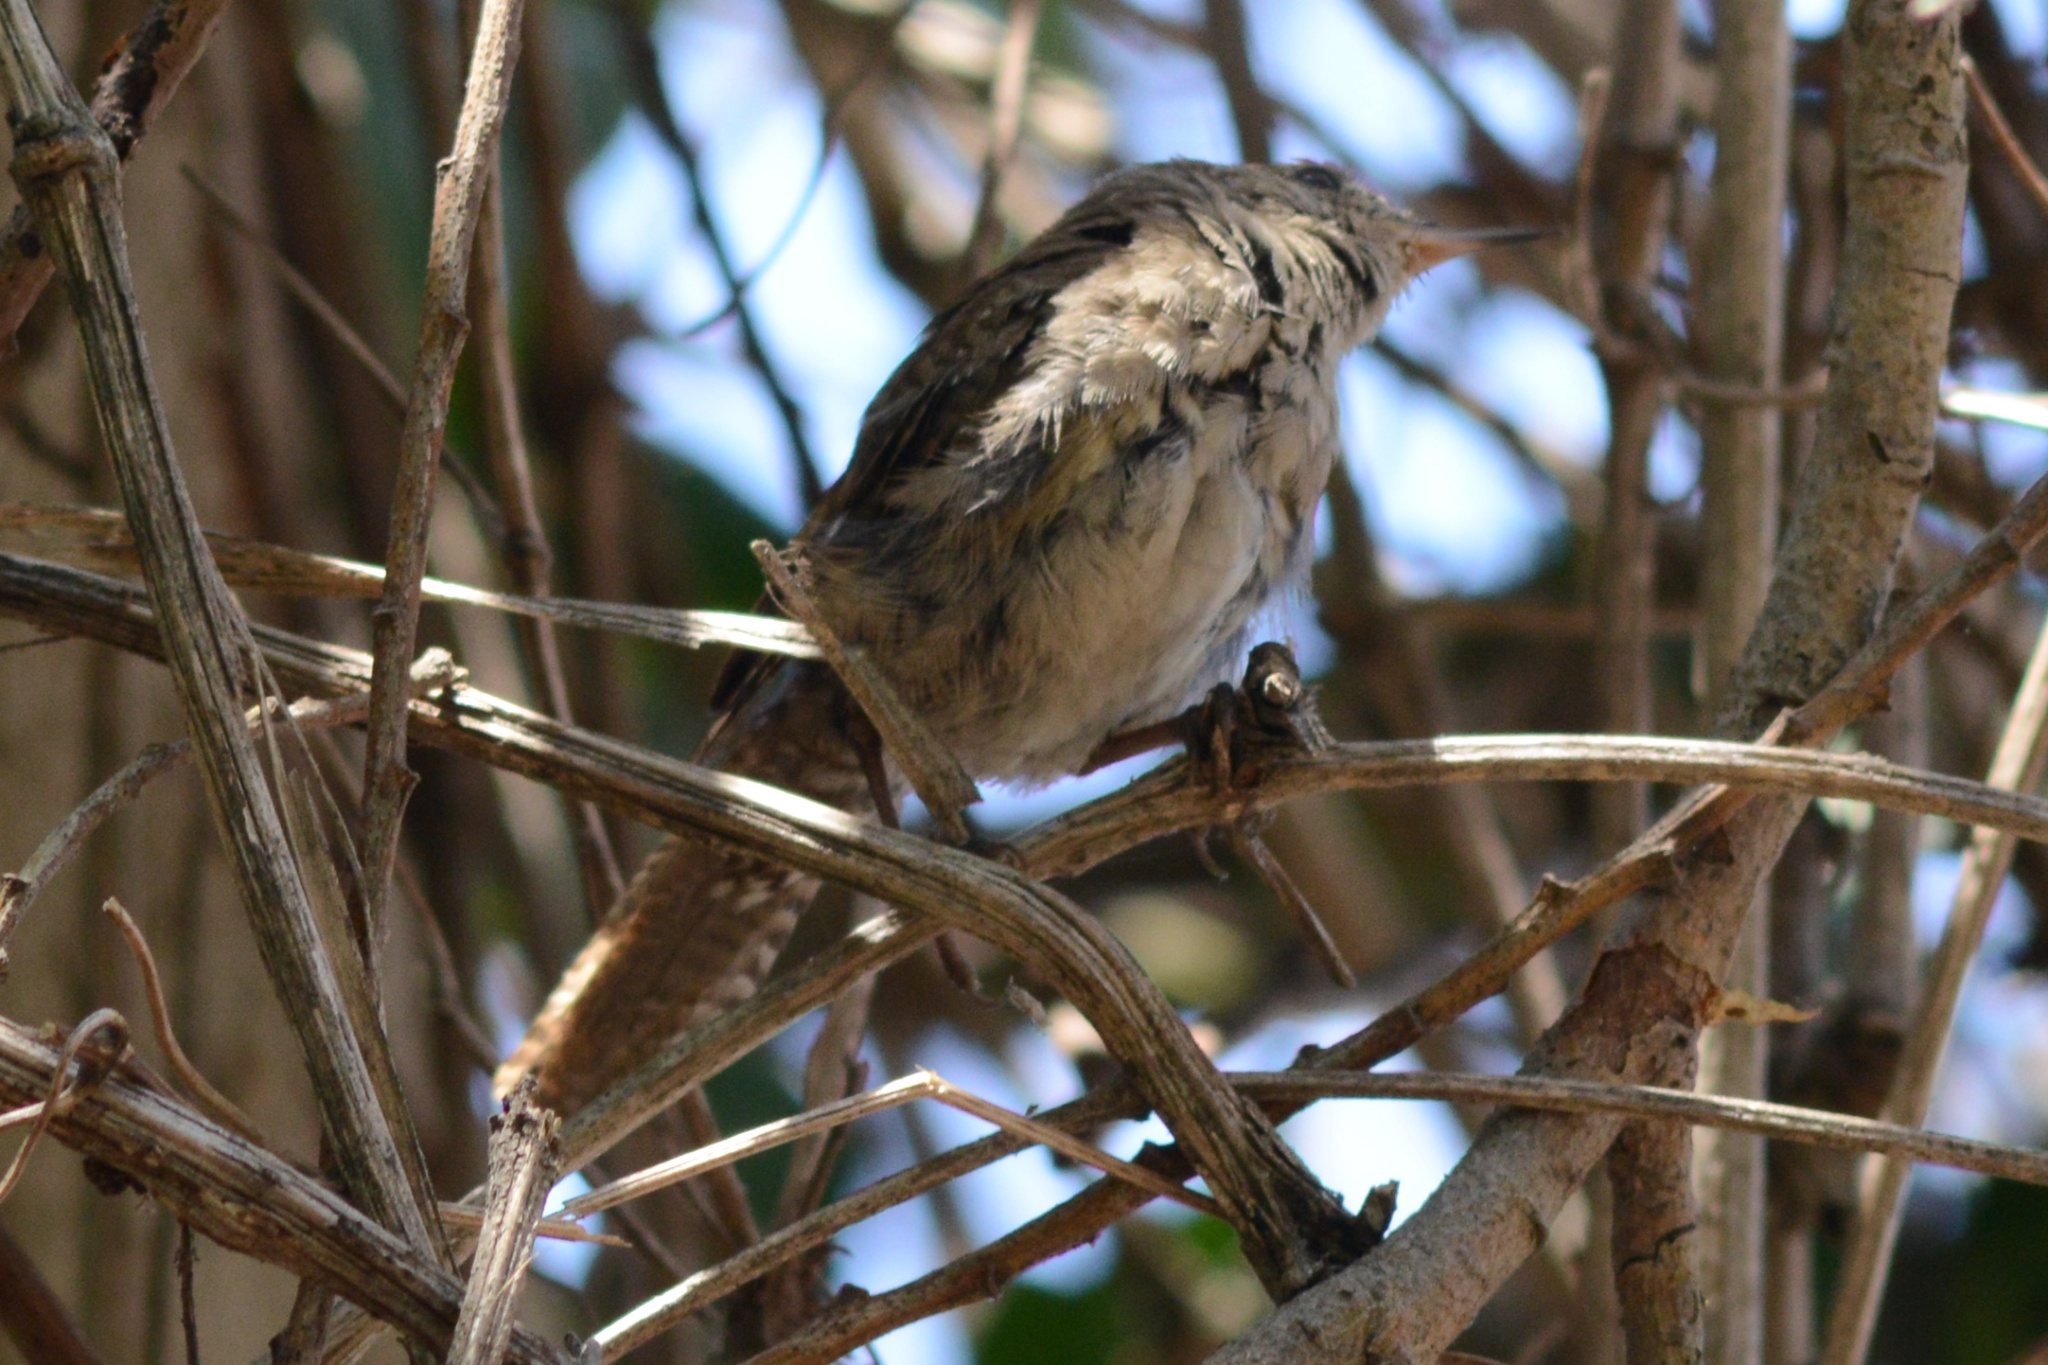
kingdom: Animalia
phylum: Chordata
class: Aves
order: Passeriformes
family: Troglodytidae
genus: Troglodytes
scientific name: Troglodytes aedon
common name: House wren
